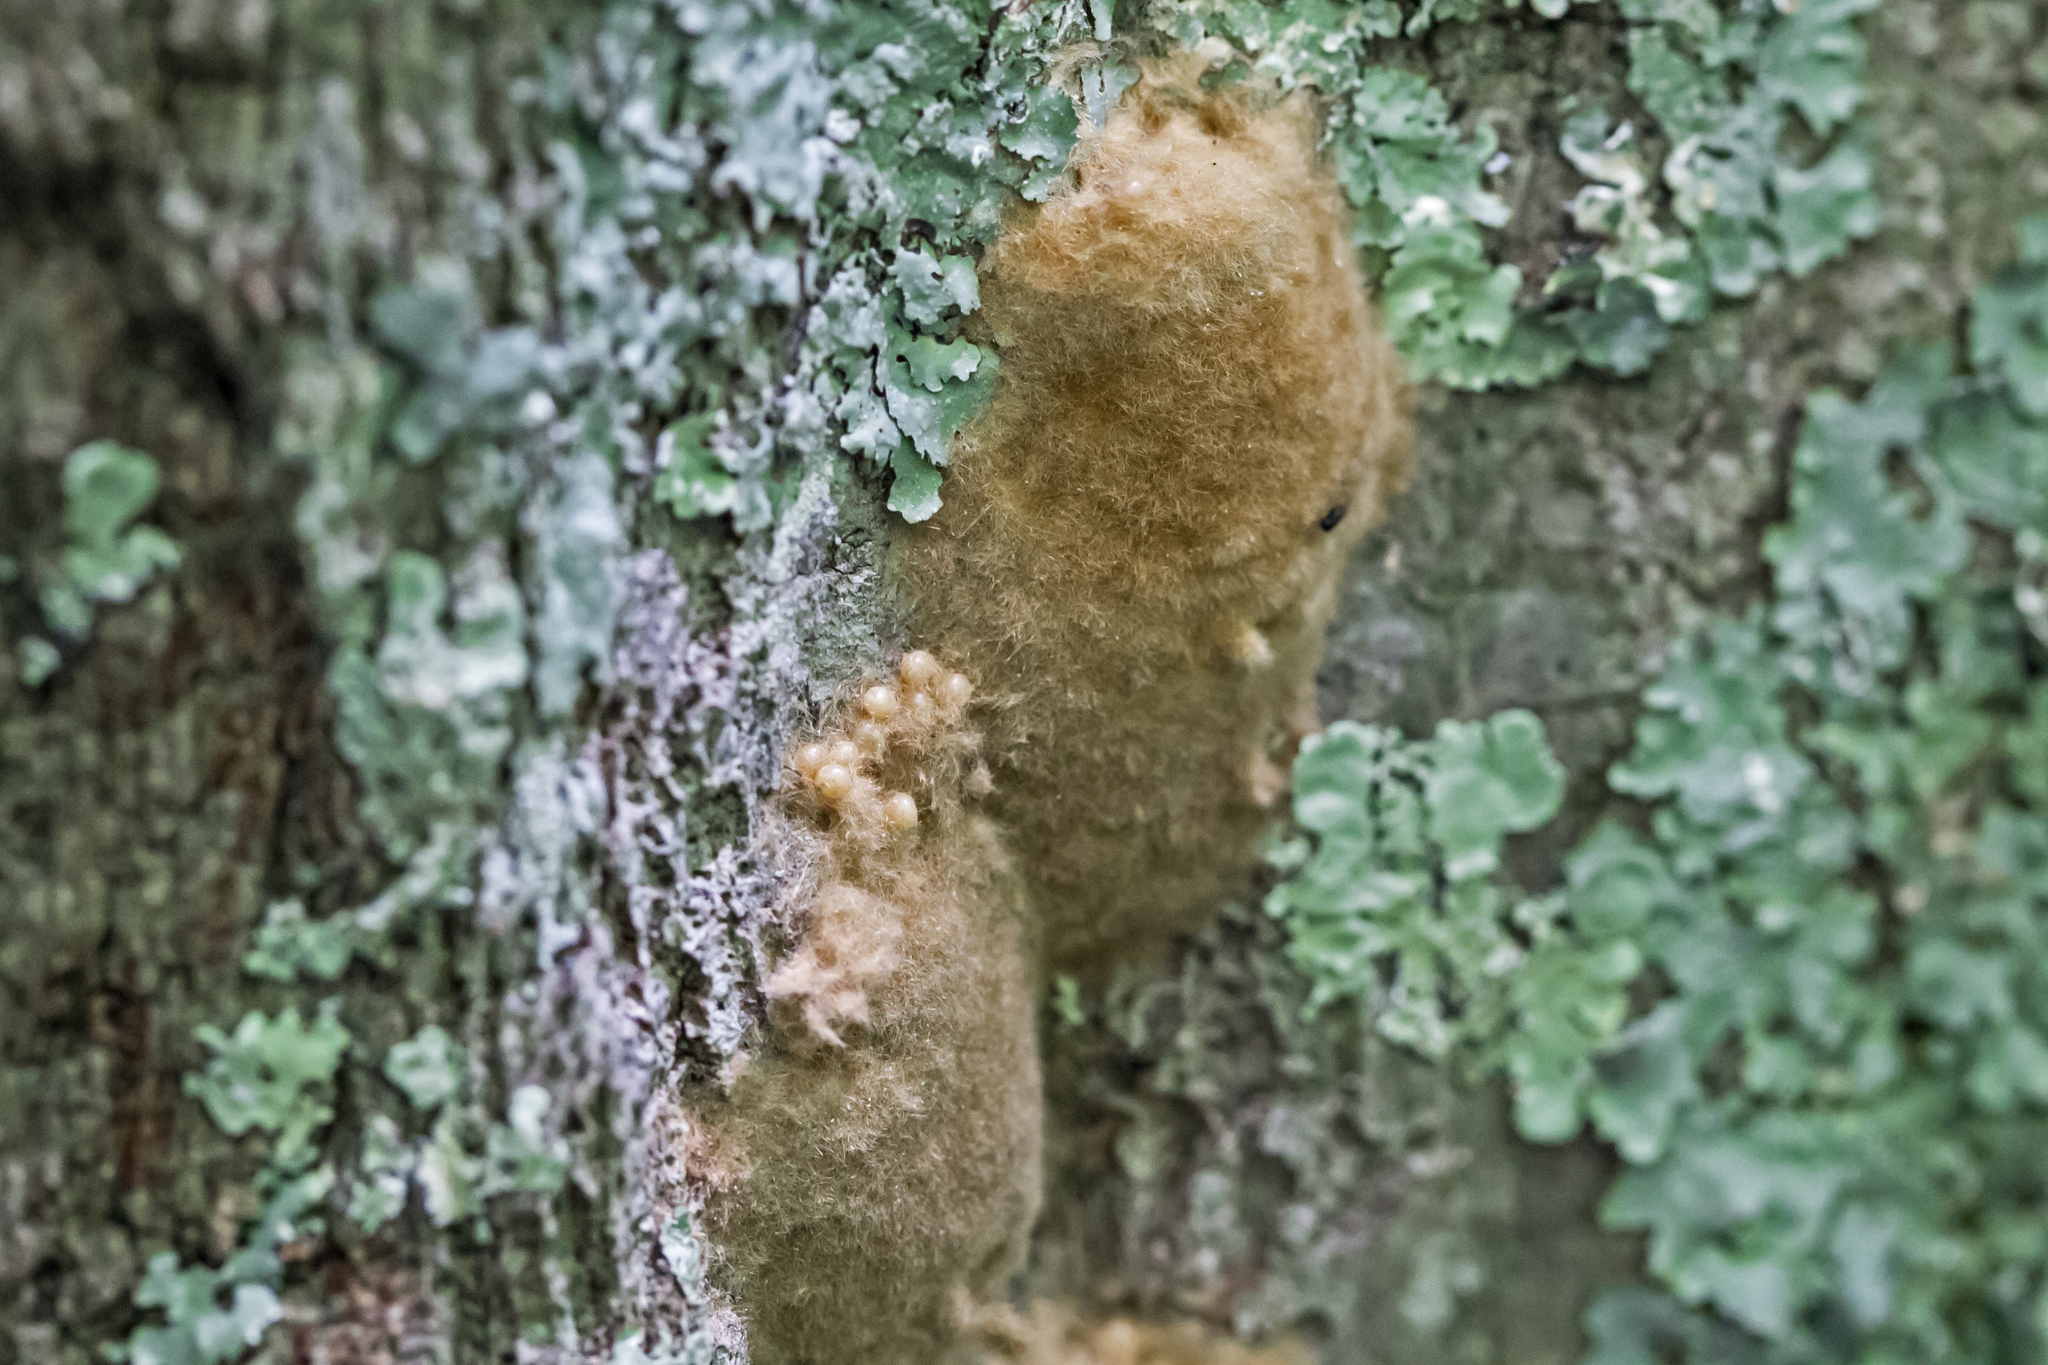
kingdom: Animalia
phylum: Arthropoda
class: Insecta
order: Lepidoptera
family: Erebidae
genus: Lymantria
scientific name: Lymantria dispar
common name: Gypsy moth
